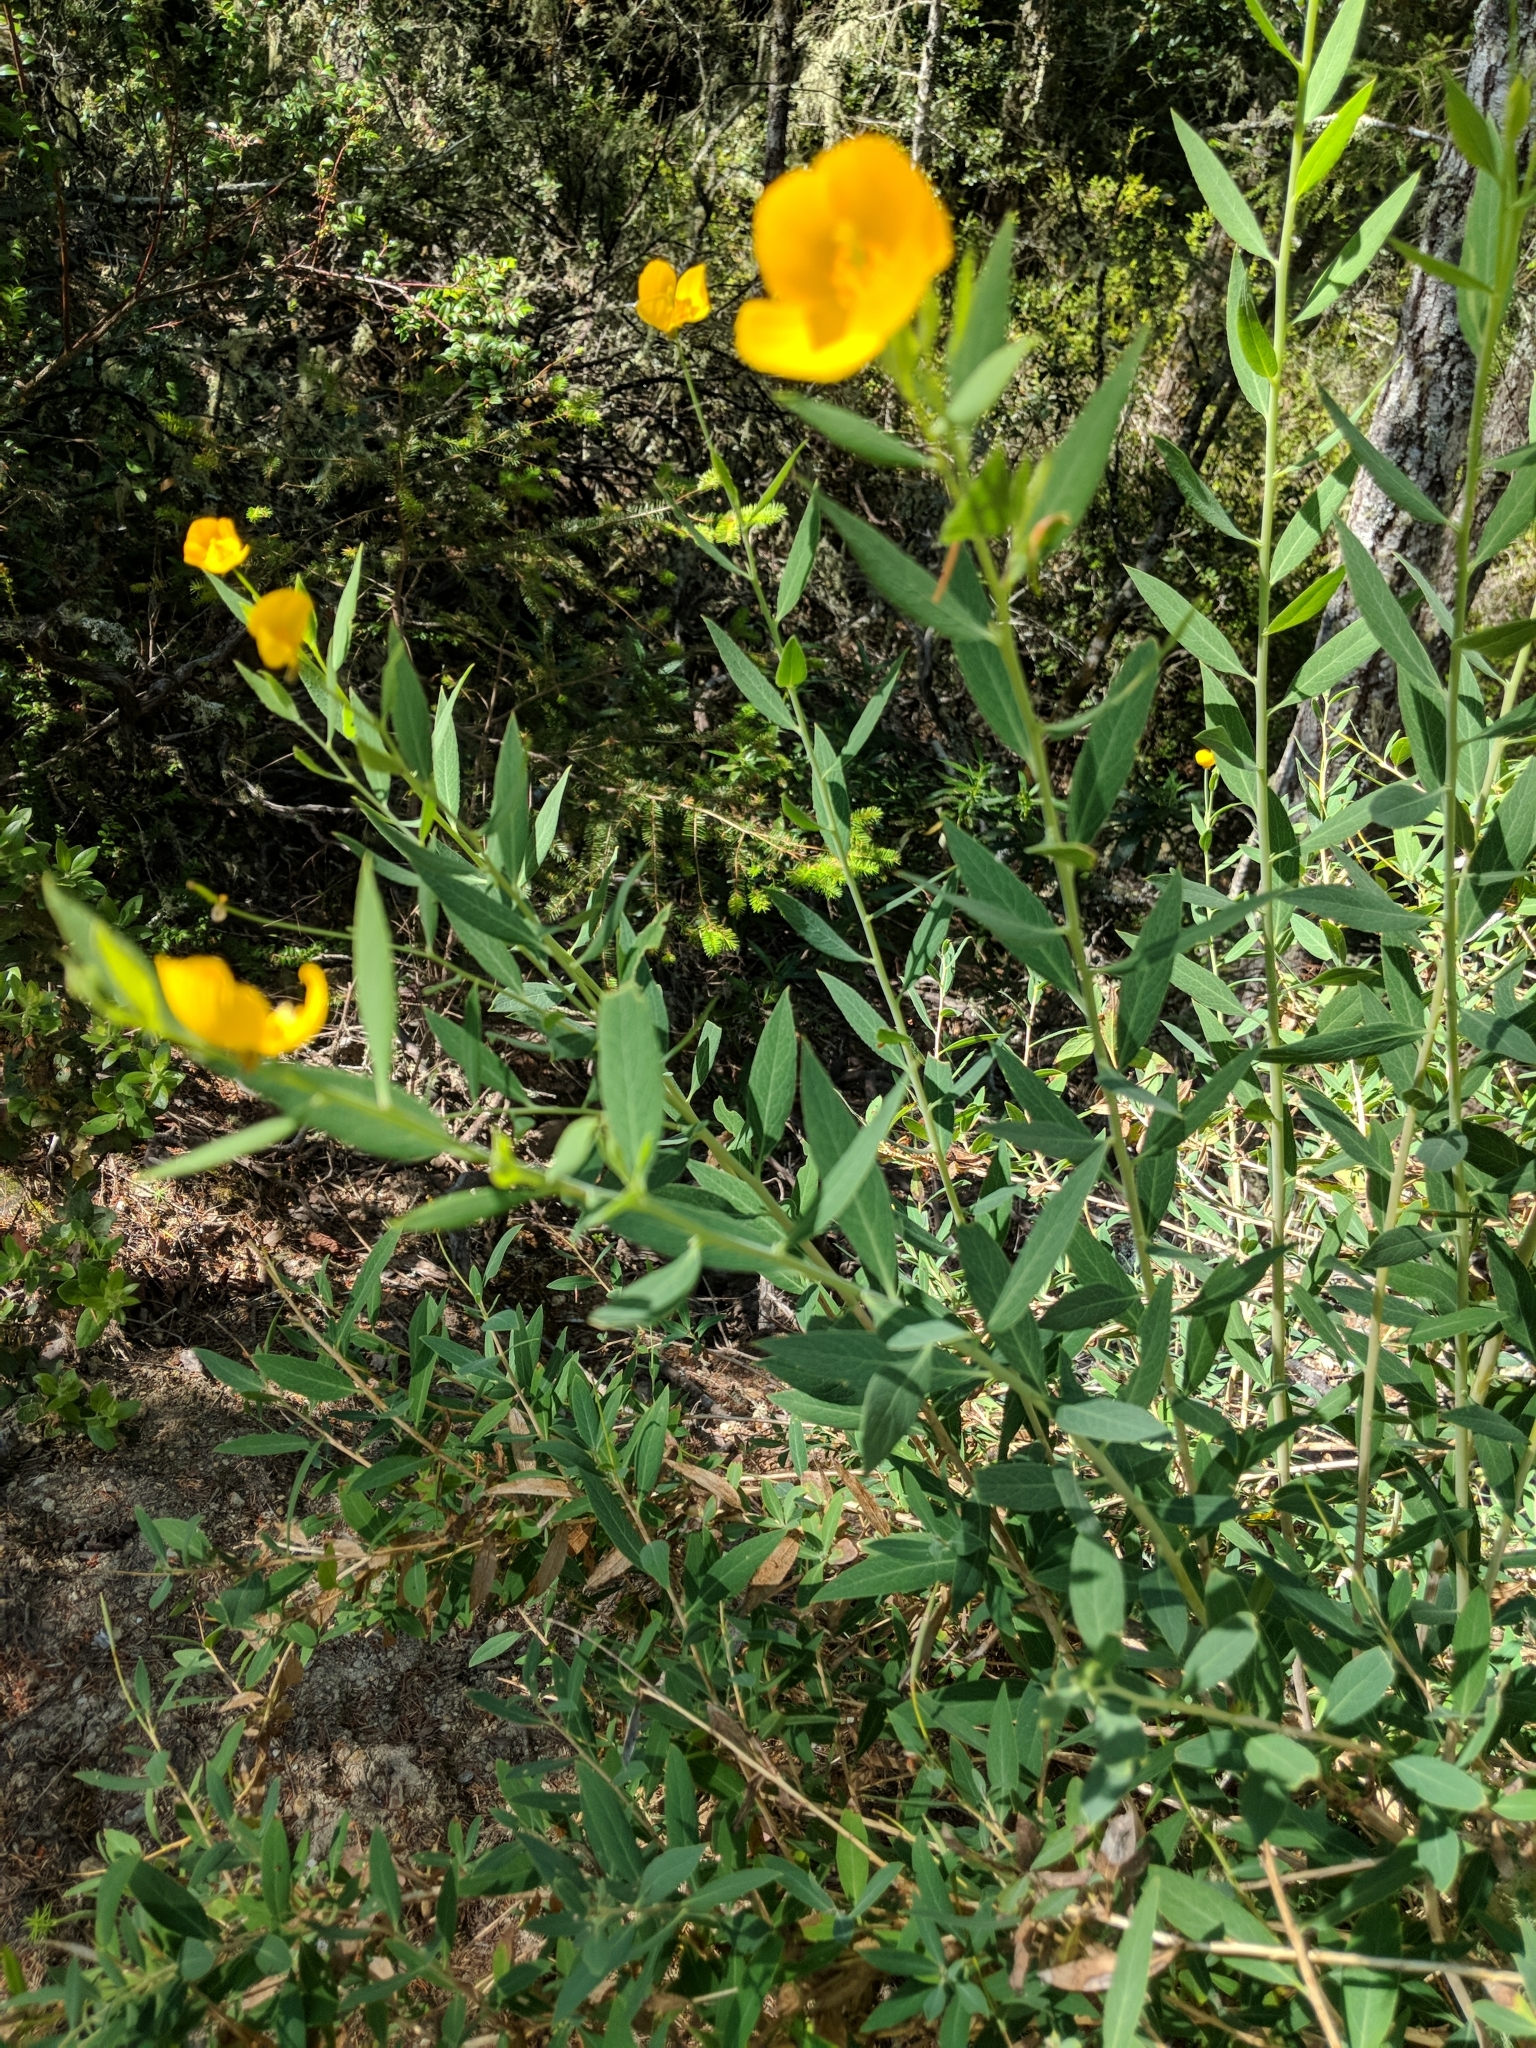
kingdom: Plantae
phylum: Tracheophyta
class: Magnoliopsida
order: Ranunculales
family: Papaveraceae
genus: Dendromecon
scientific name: Dendromecon rigida
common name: Tree poppy
